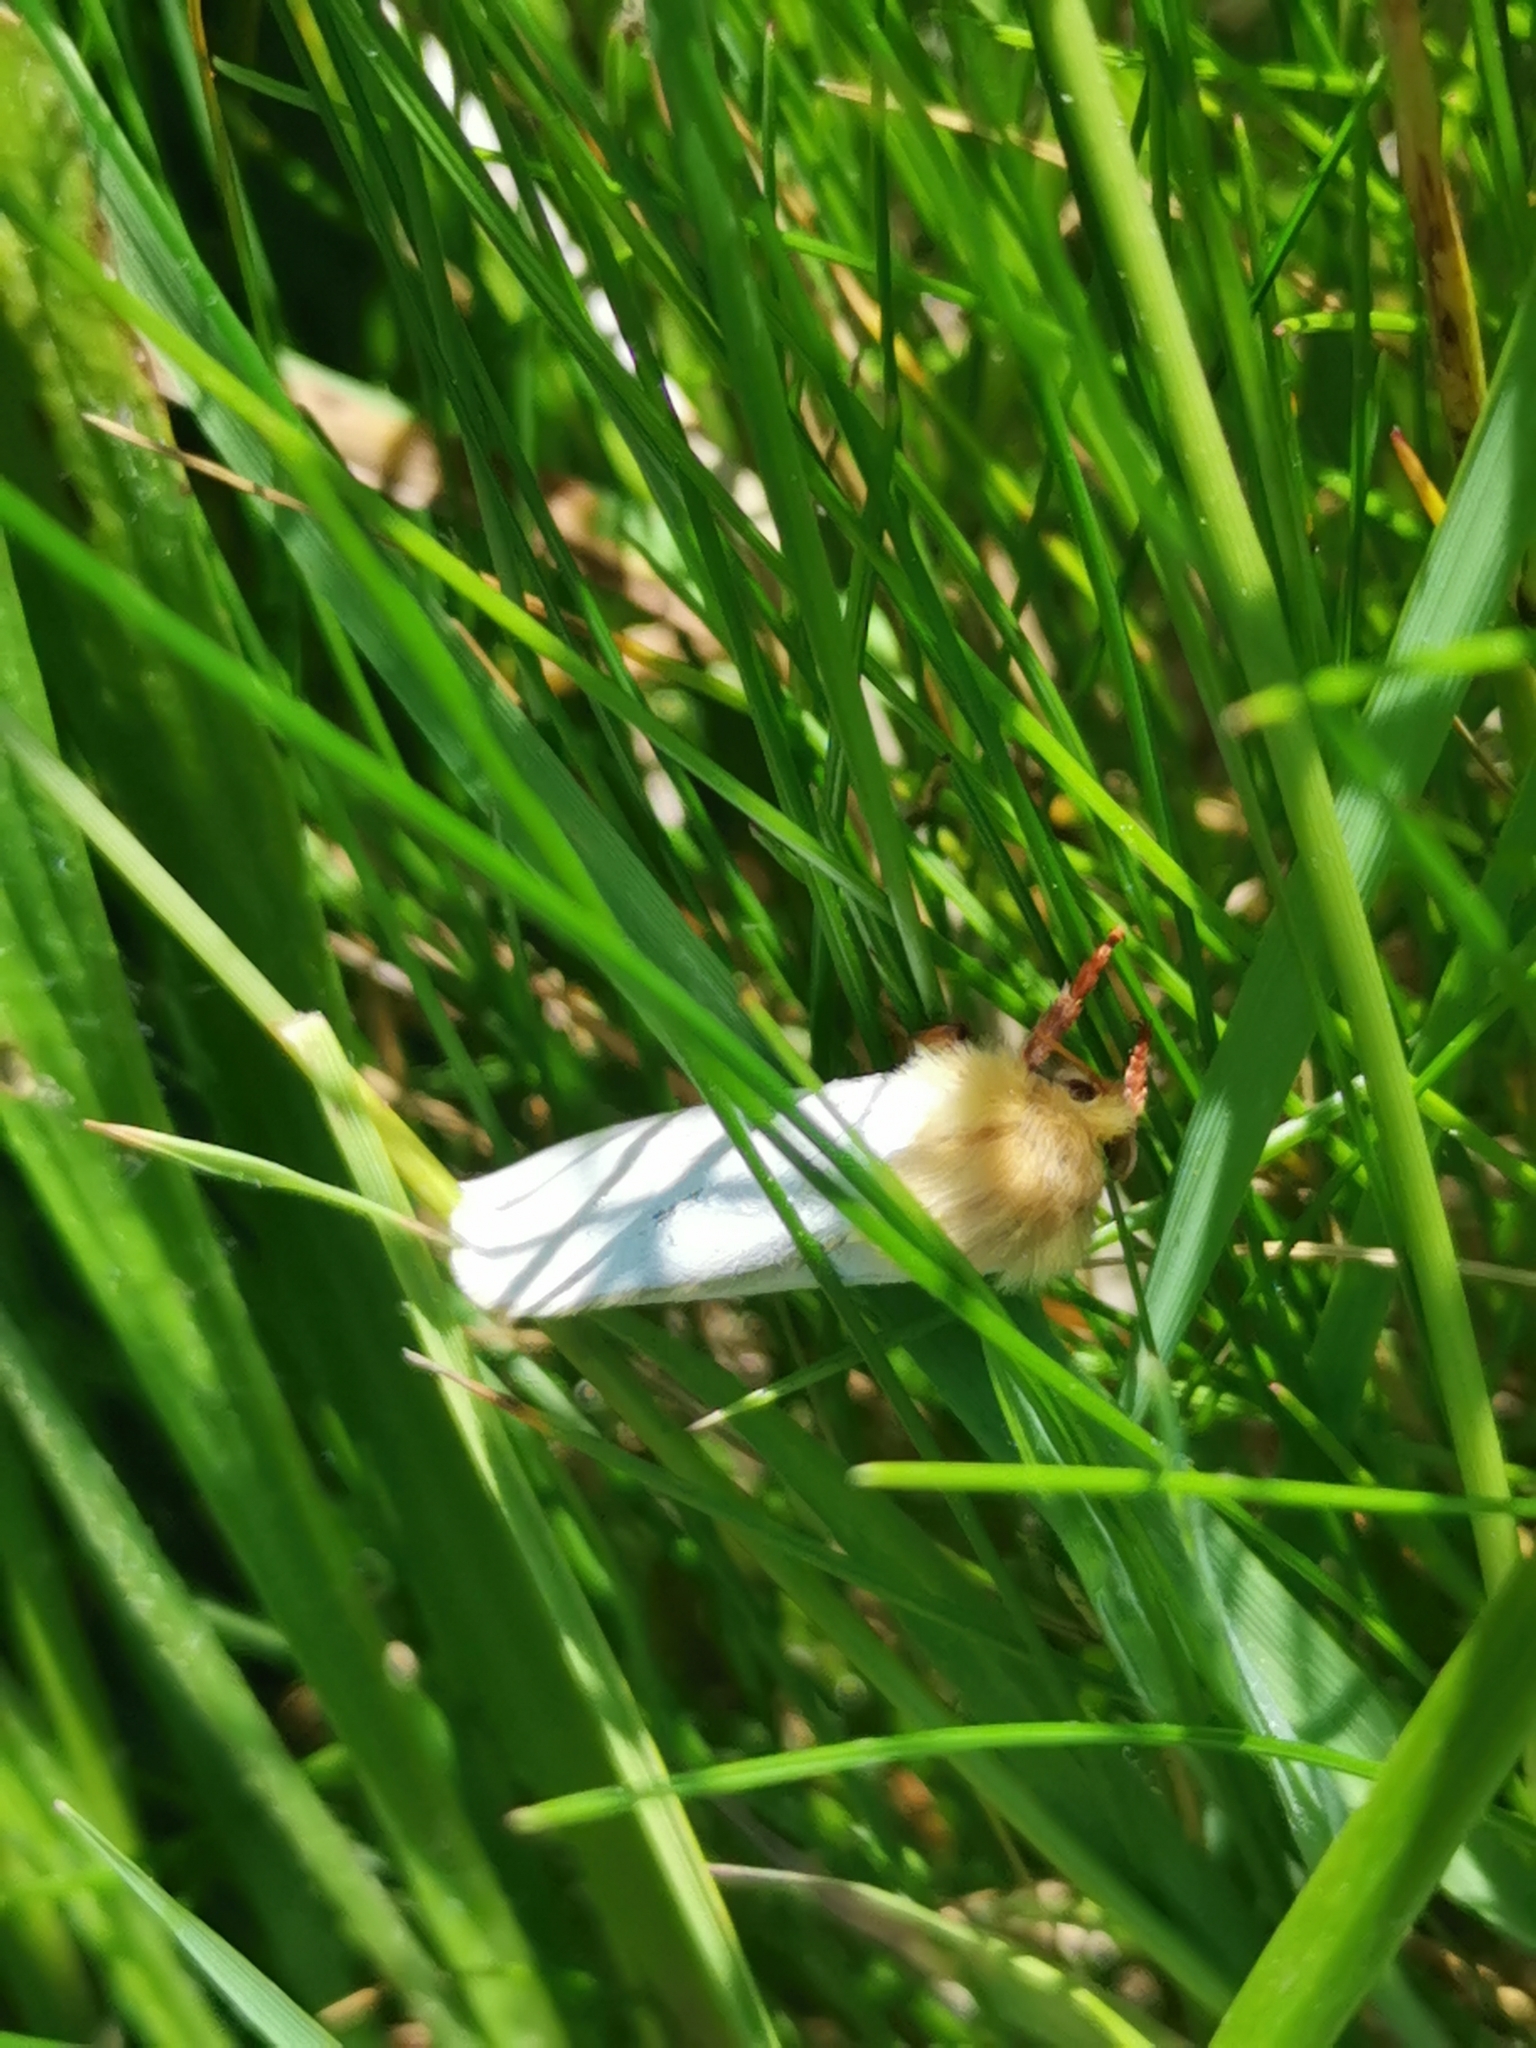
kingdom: Animalia
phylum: Arthropoda
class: Insecta
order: Lepidoptera
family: Hepialidae
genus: Hepialus
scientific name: Hepialus humuli
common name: Ghost moth
